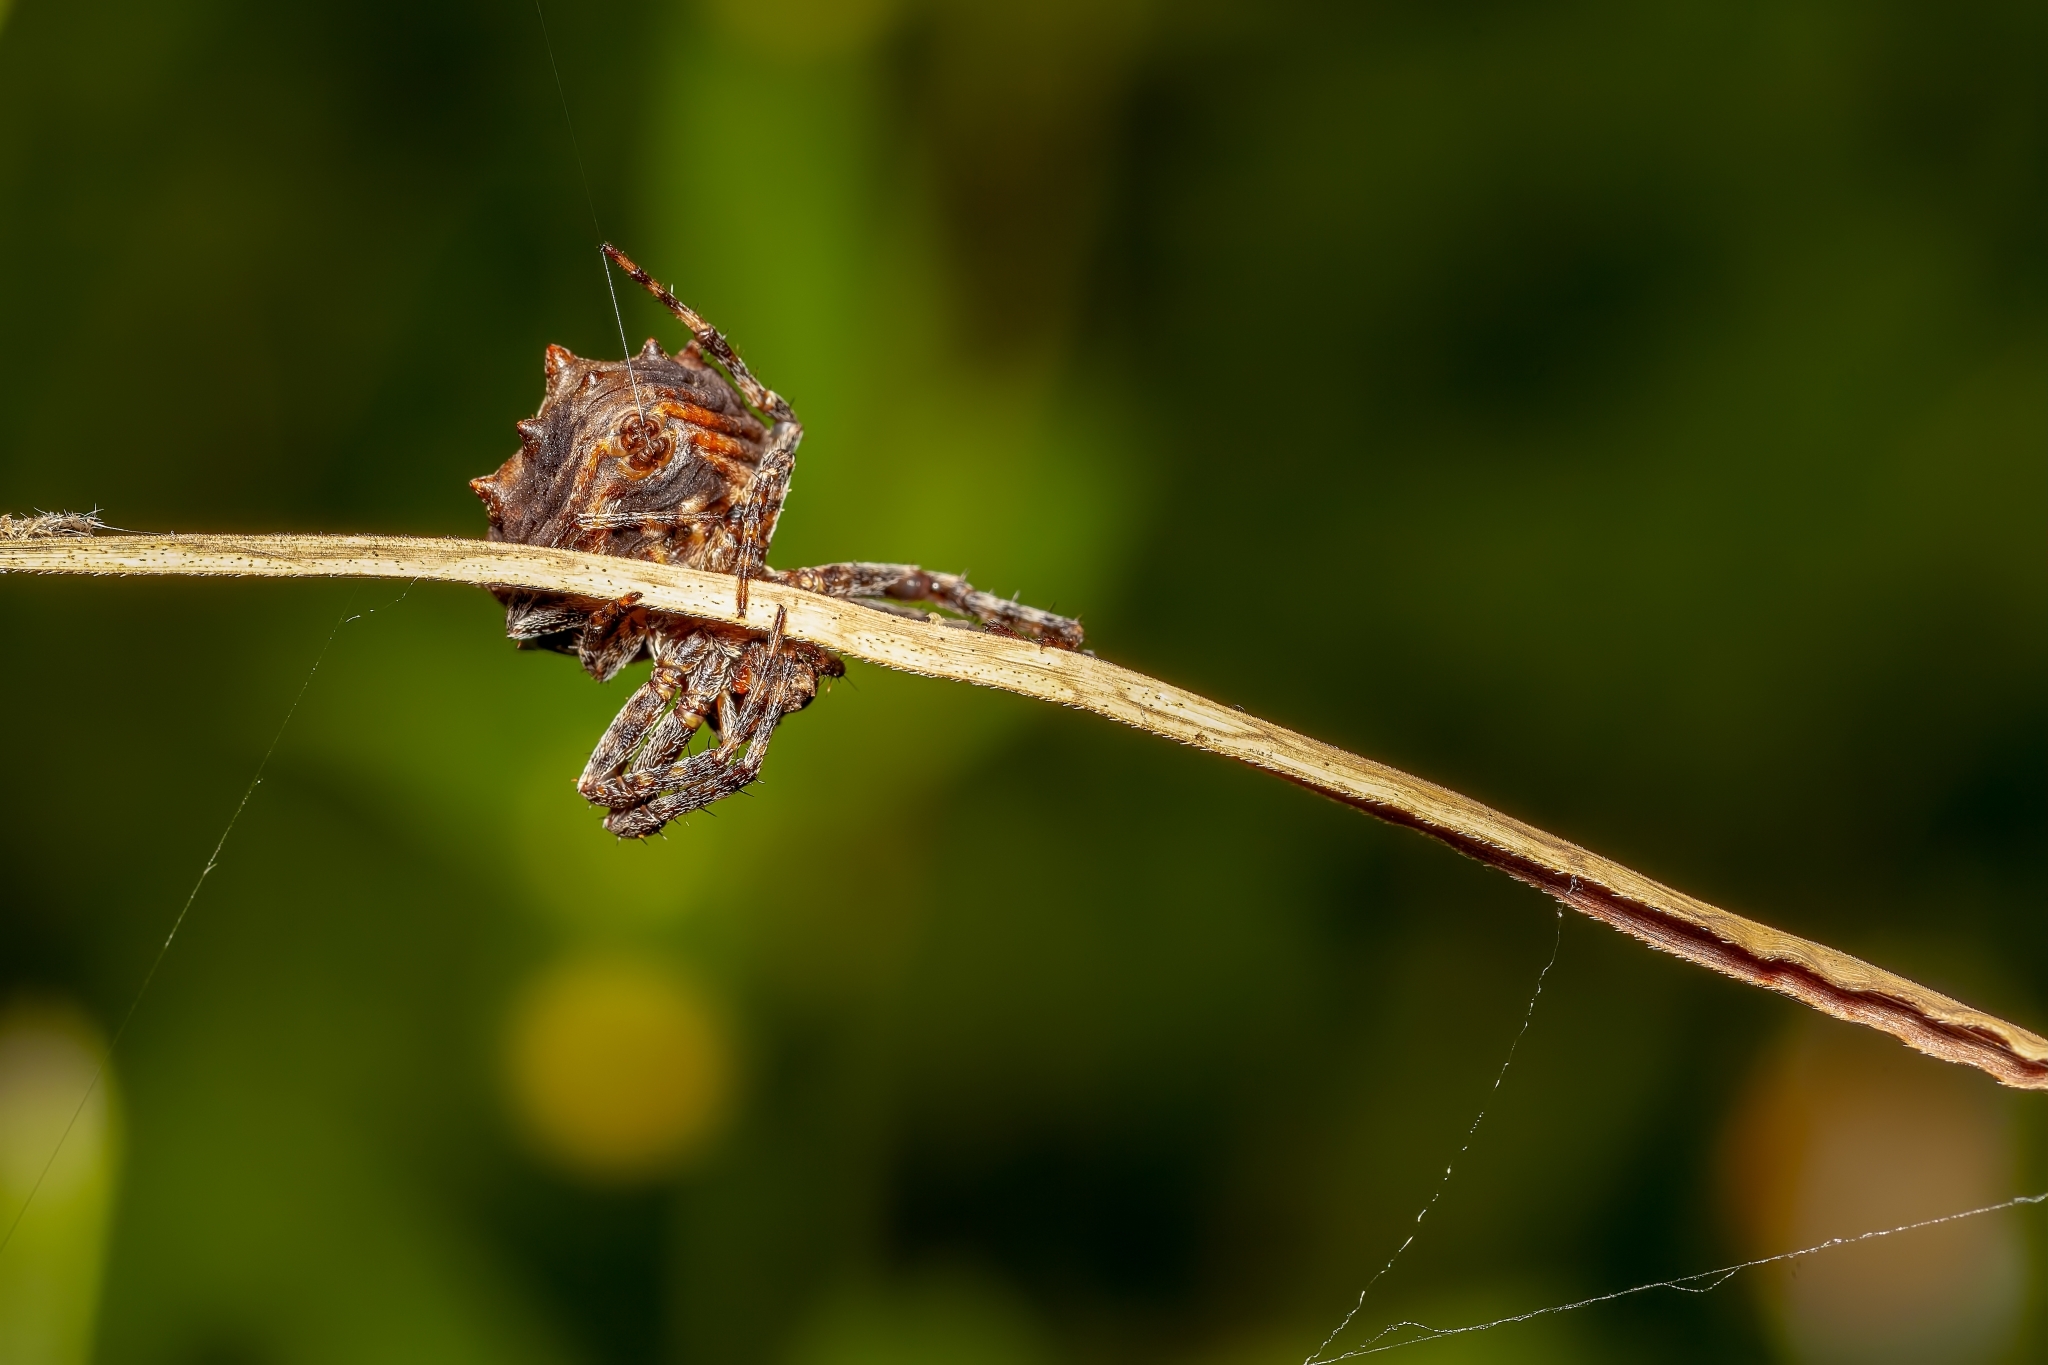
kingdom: Animalia
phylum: Arthropoda
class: Arachnida
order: Araneae
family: Araneidae
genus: Acanthepeira
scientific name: Acanthepeira venusta
